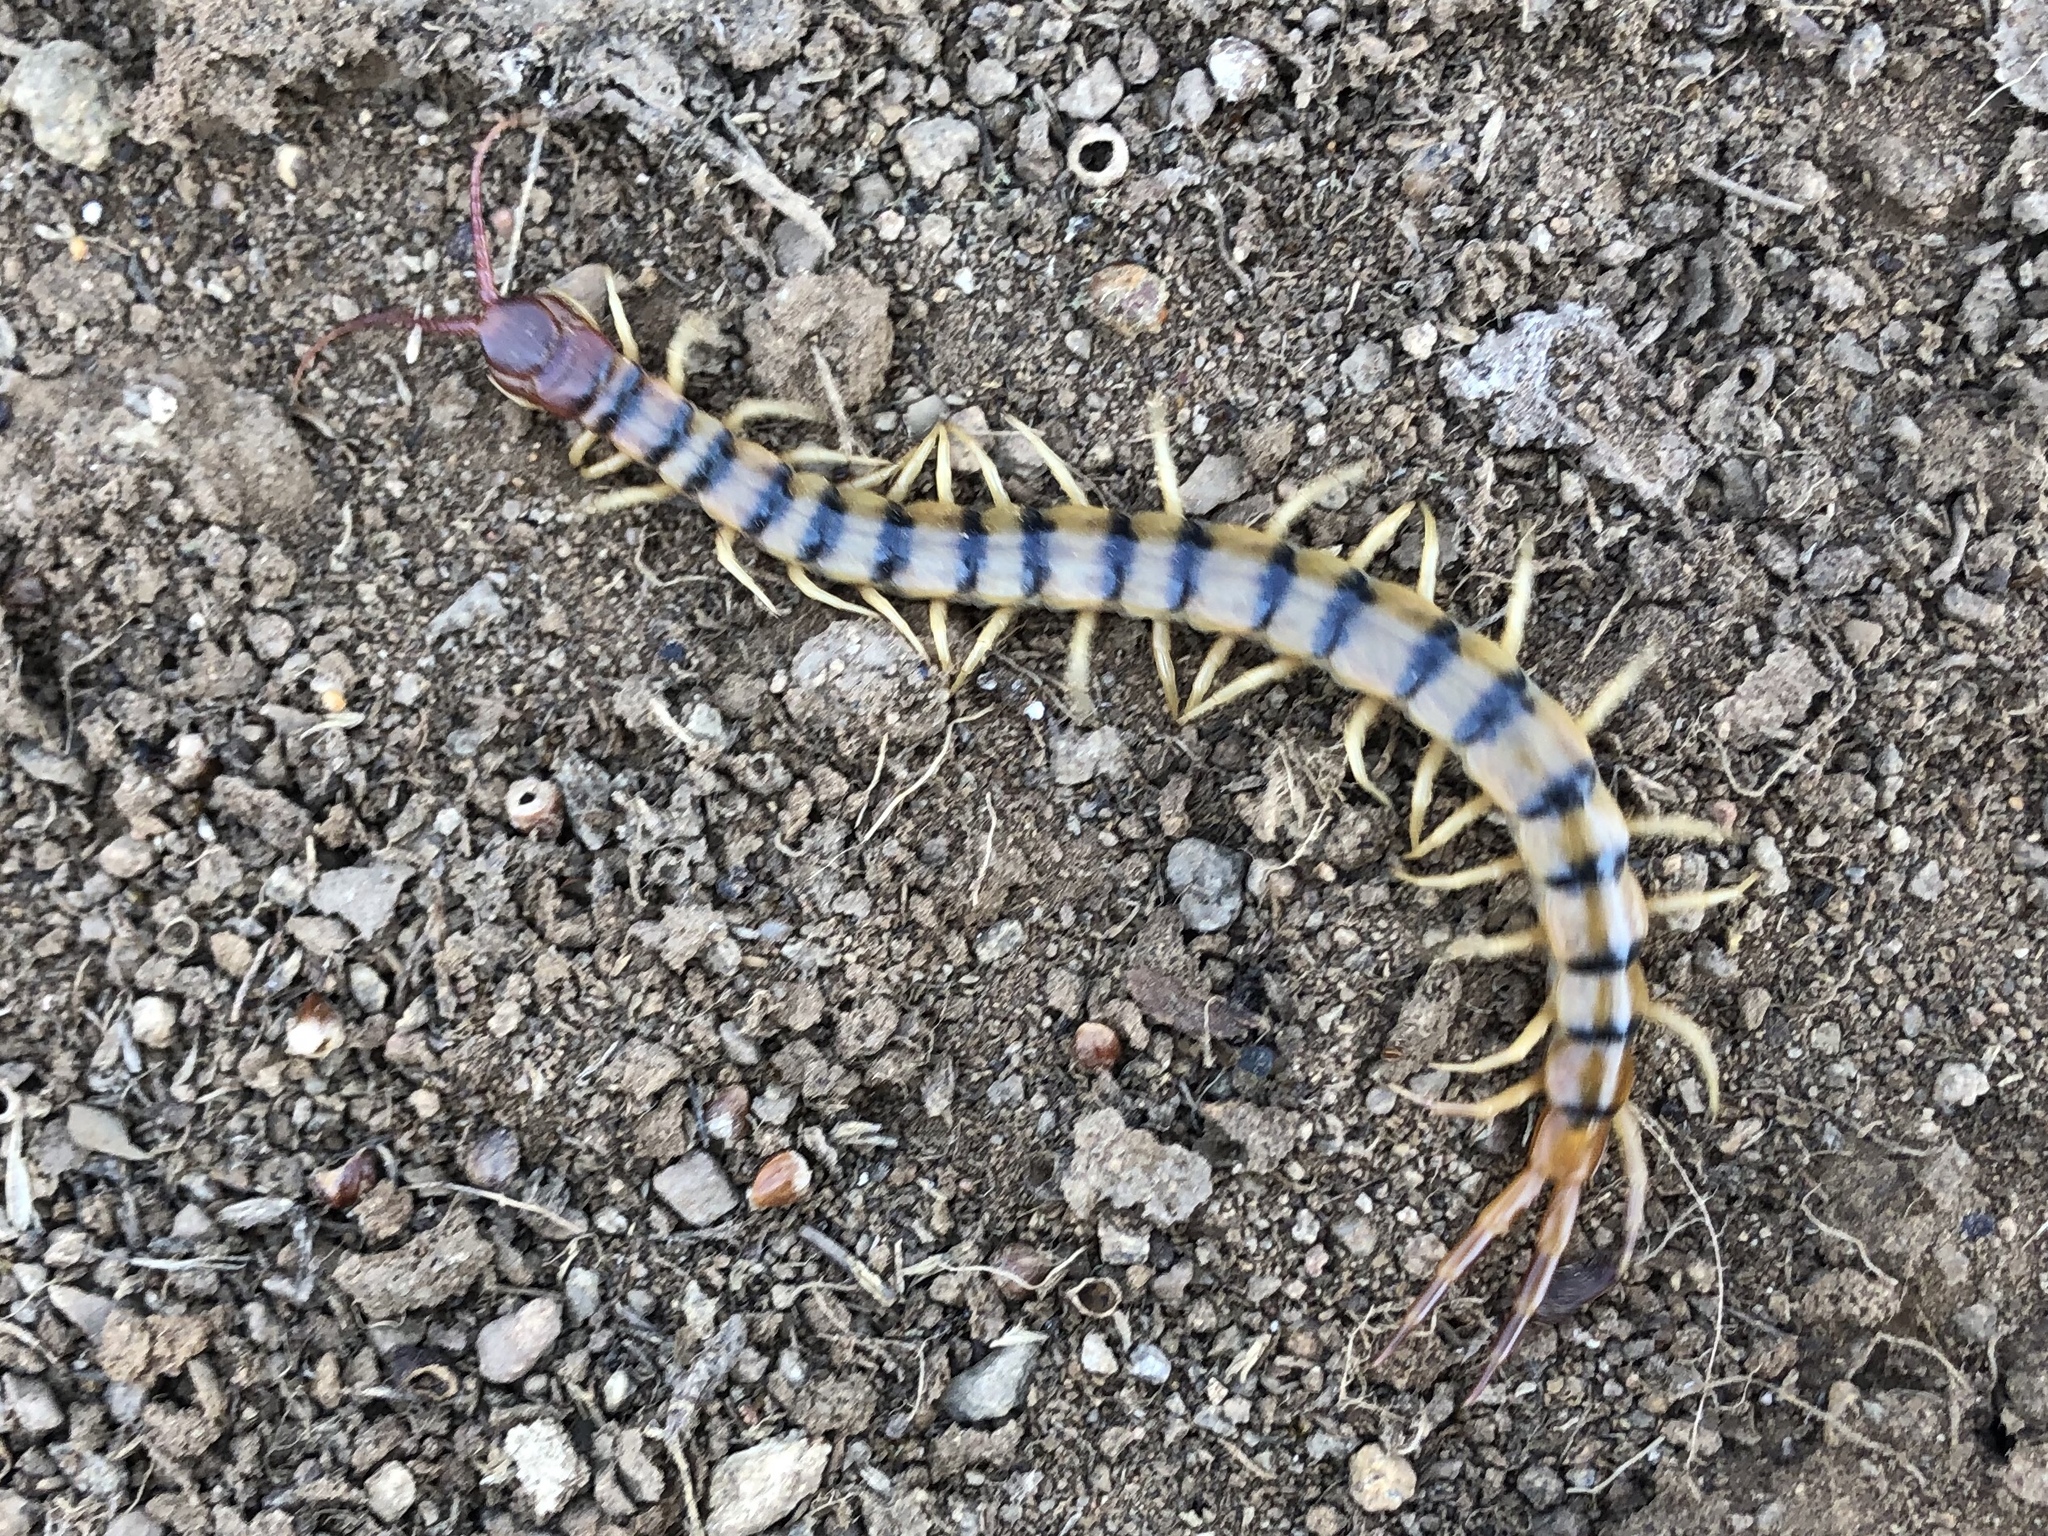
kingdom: Animalia
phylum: Arthropoda
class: Chilopoda
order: Scolopendromorpha
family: Scolopendridae
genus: Scolopendra
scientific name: Scolopendra polymorpha
